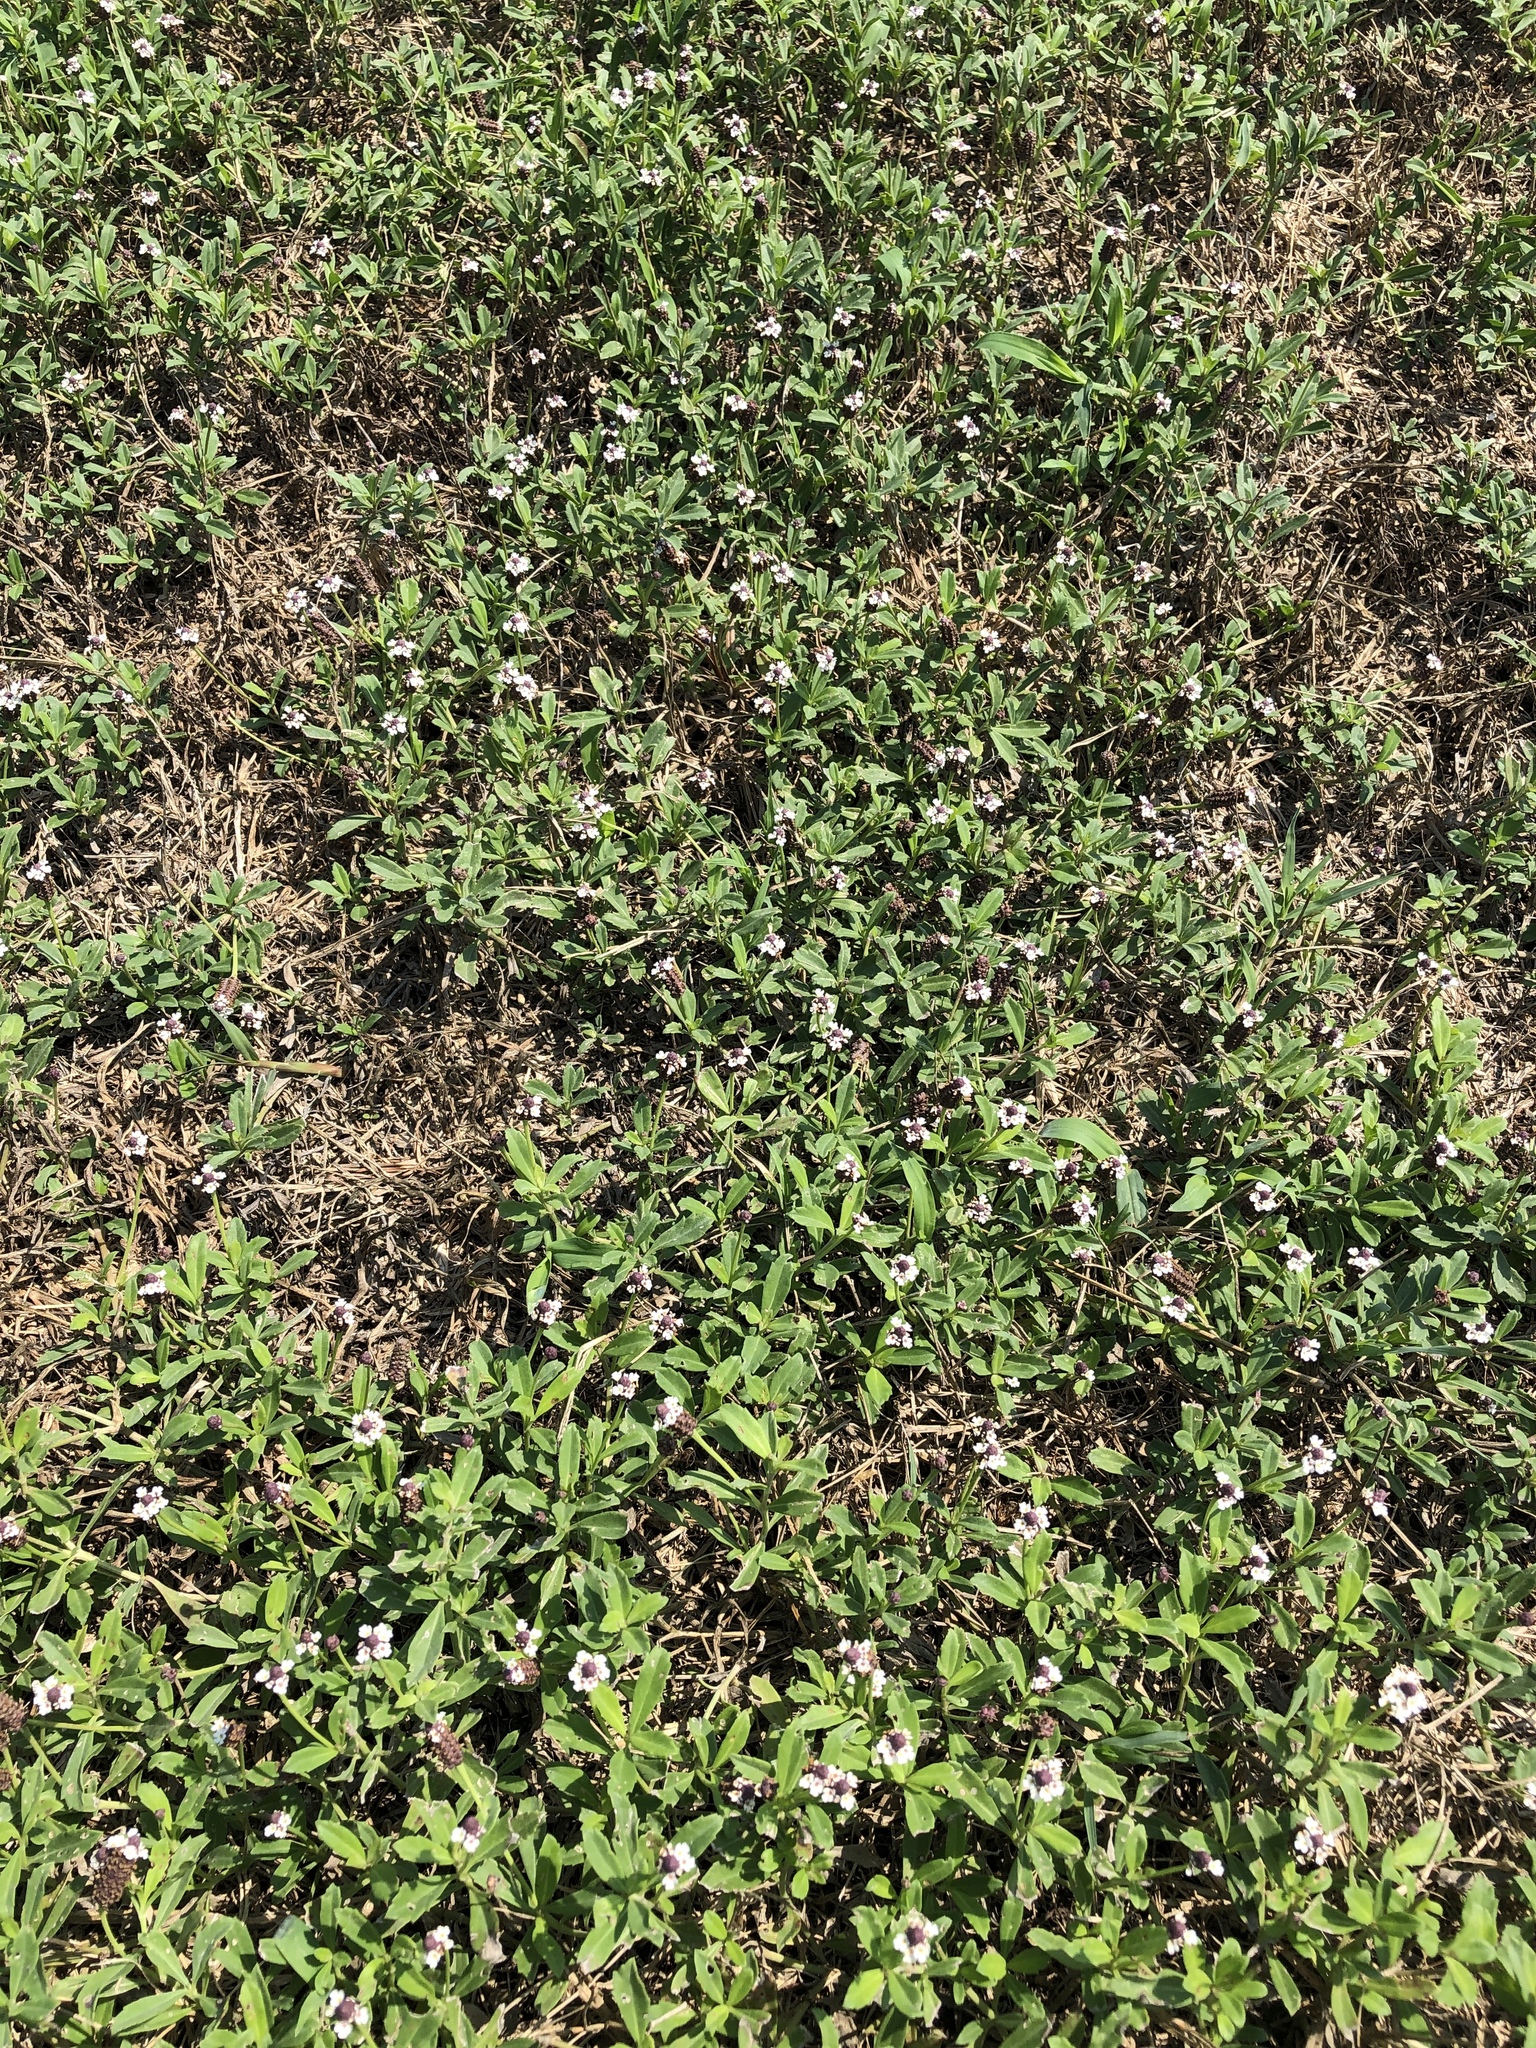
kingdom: Plantae
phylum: Tracheophyta
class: Magnoliopsida
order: Lamiales
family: Verbenaceae
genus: Phyla
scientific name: Phyla nodiflora
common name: Frogfruit
